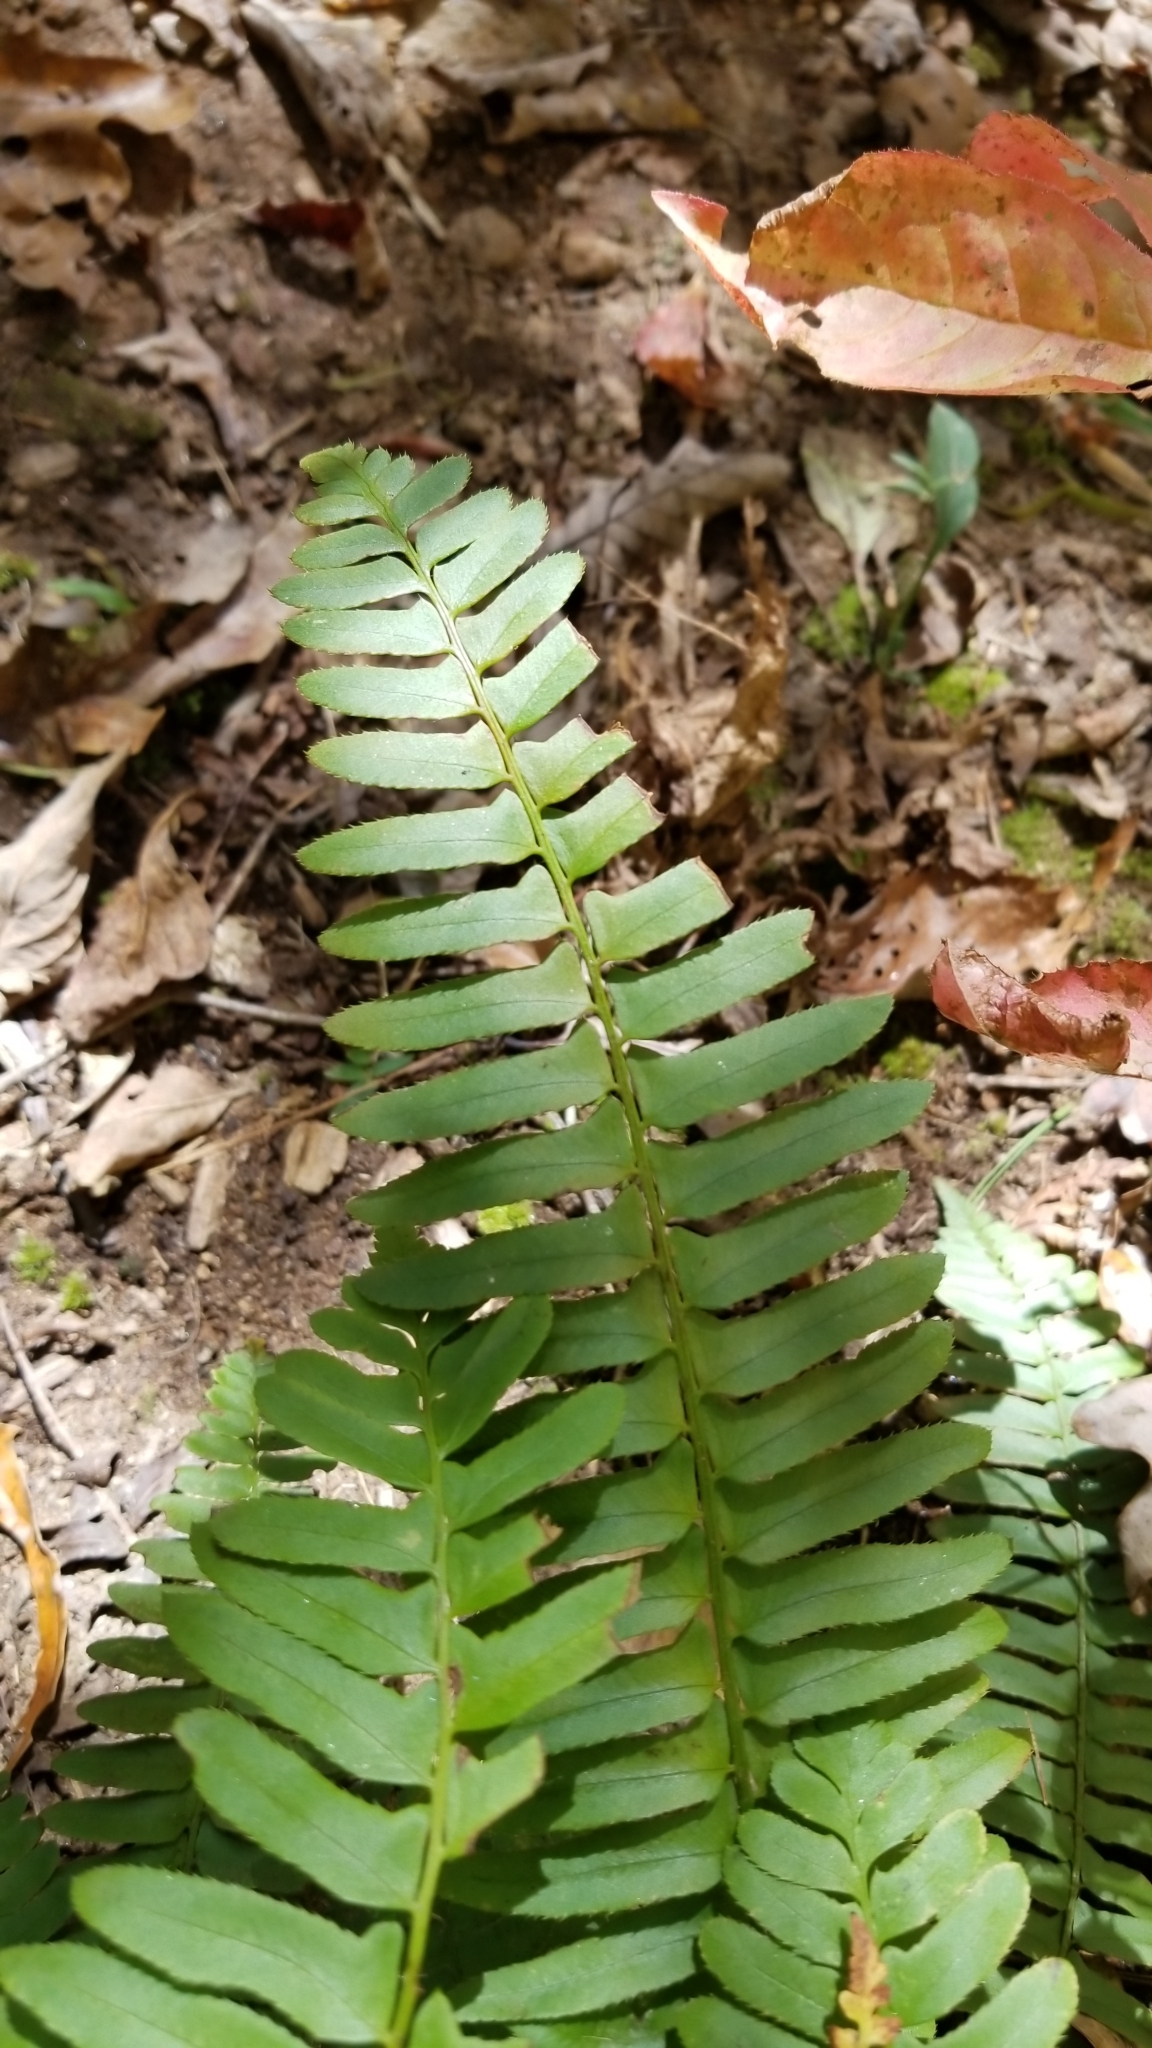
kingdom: Plantae
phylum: Tracheophyta
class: Polypodiopsida
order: Polypodiales
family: Dryopteridaceae
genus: Polystichum
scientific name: Polystichum acrostichoides
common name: Christmas fern
